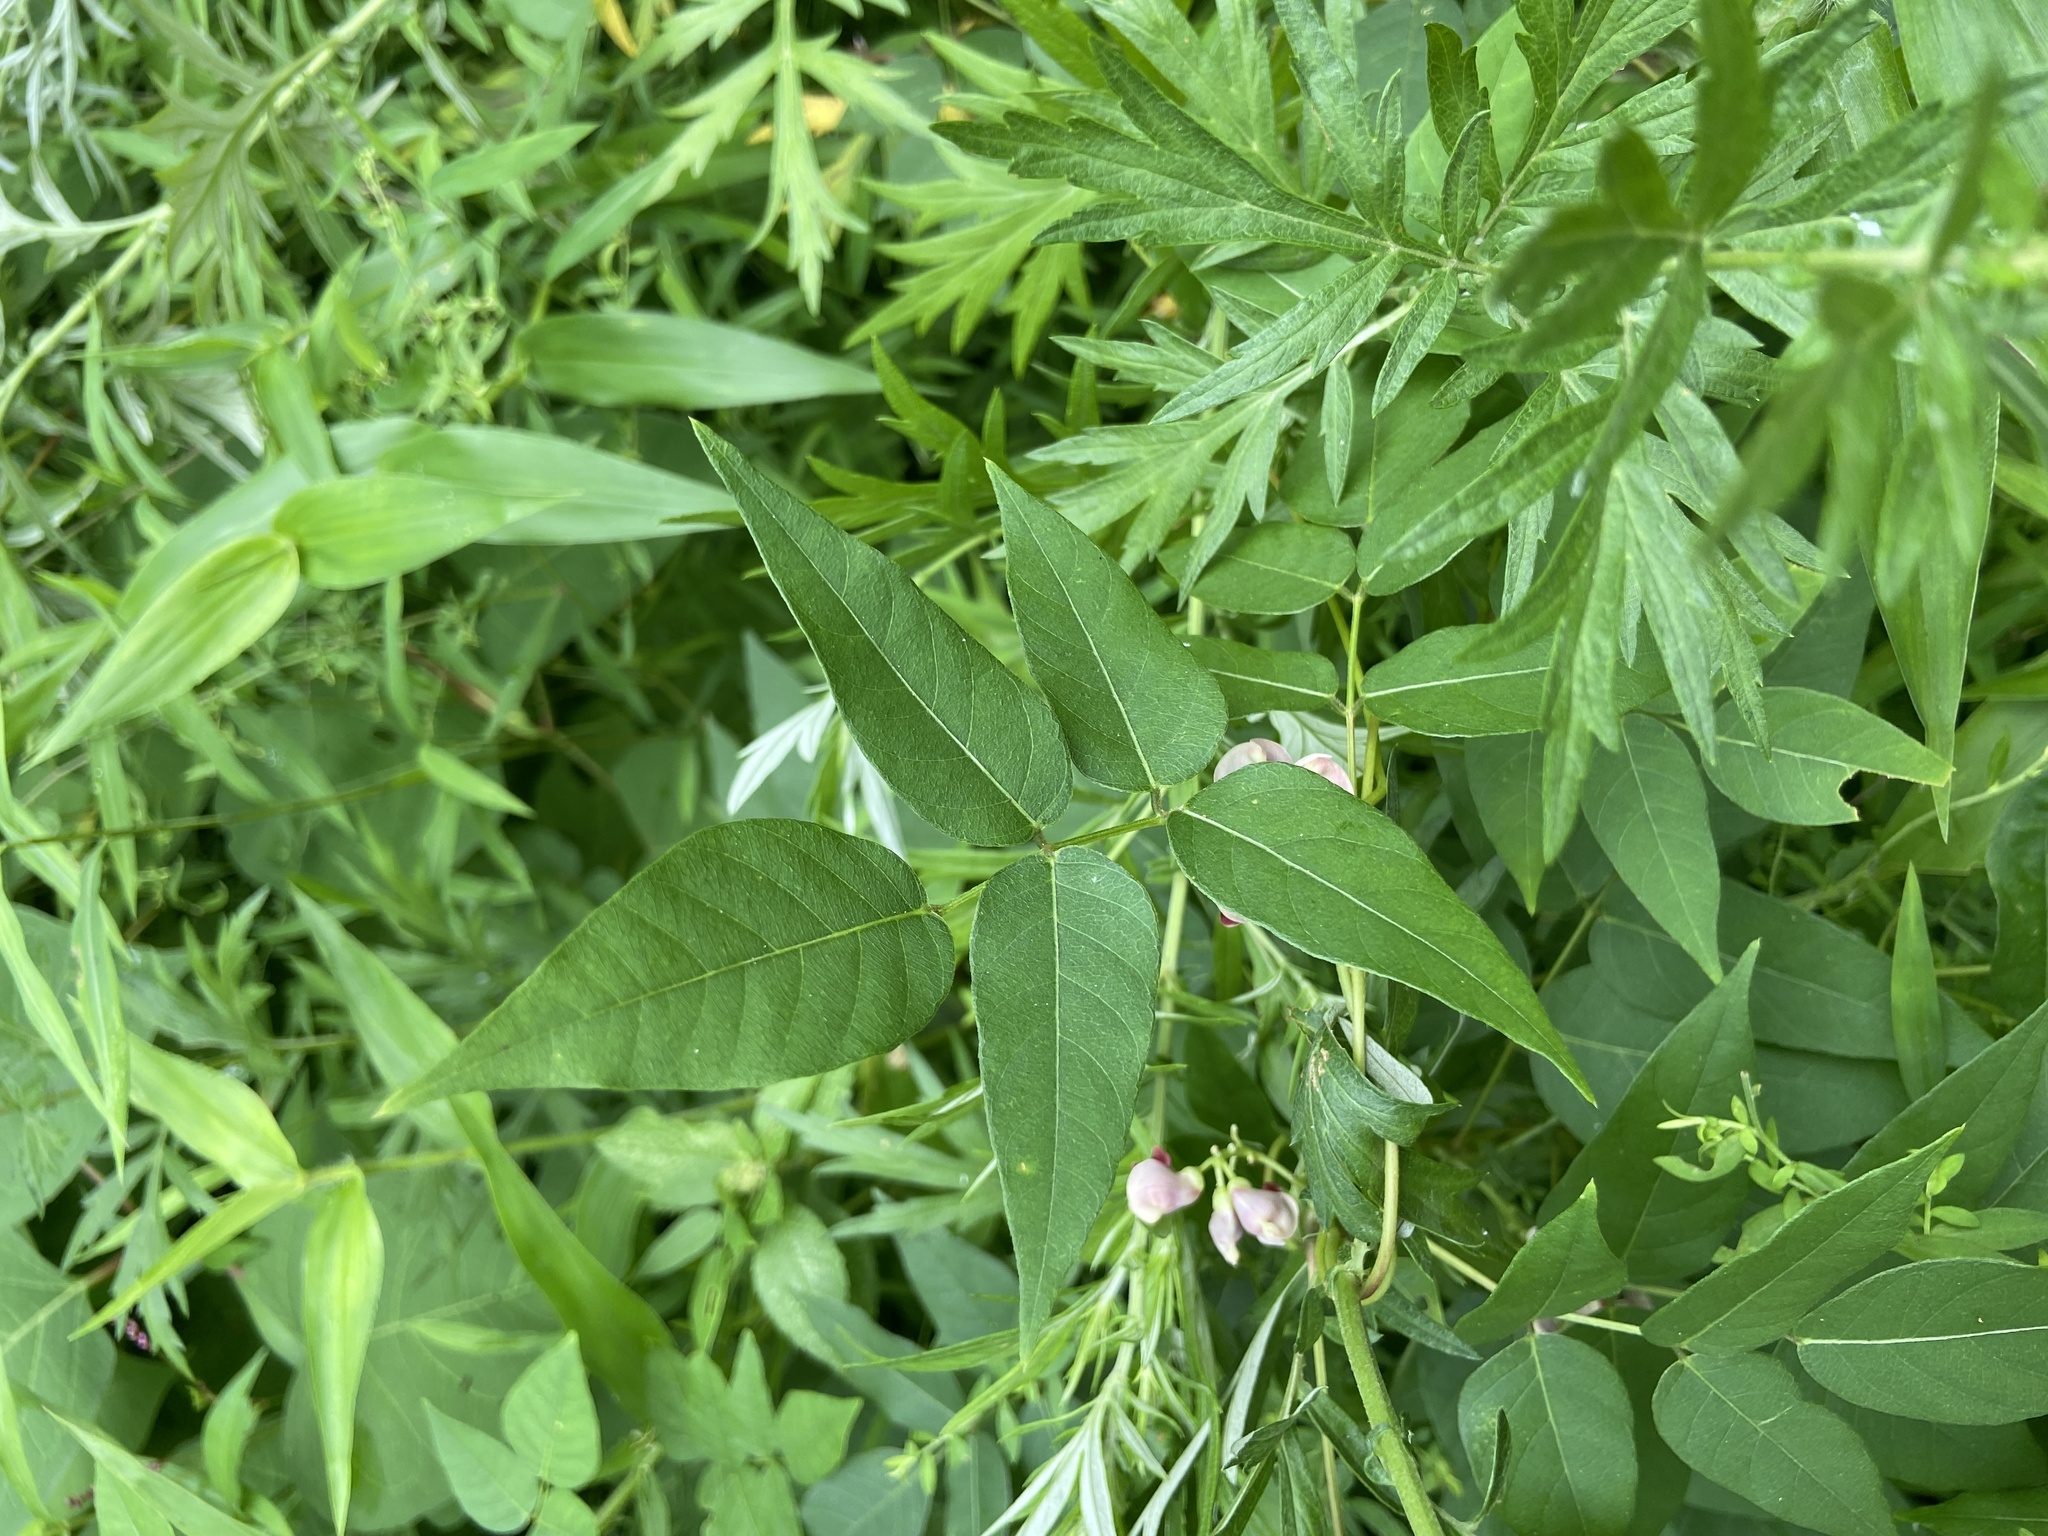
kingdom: Plantae
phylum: Tracheophyta
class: Magnoliopsida
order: Fabales
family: Fabaceae
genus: Apios
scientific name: Apios americana
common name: American potato-bean
